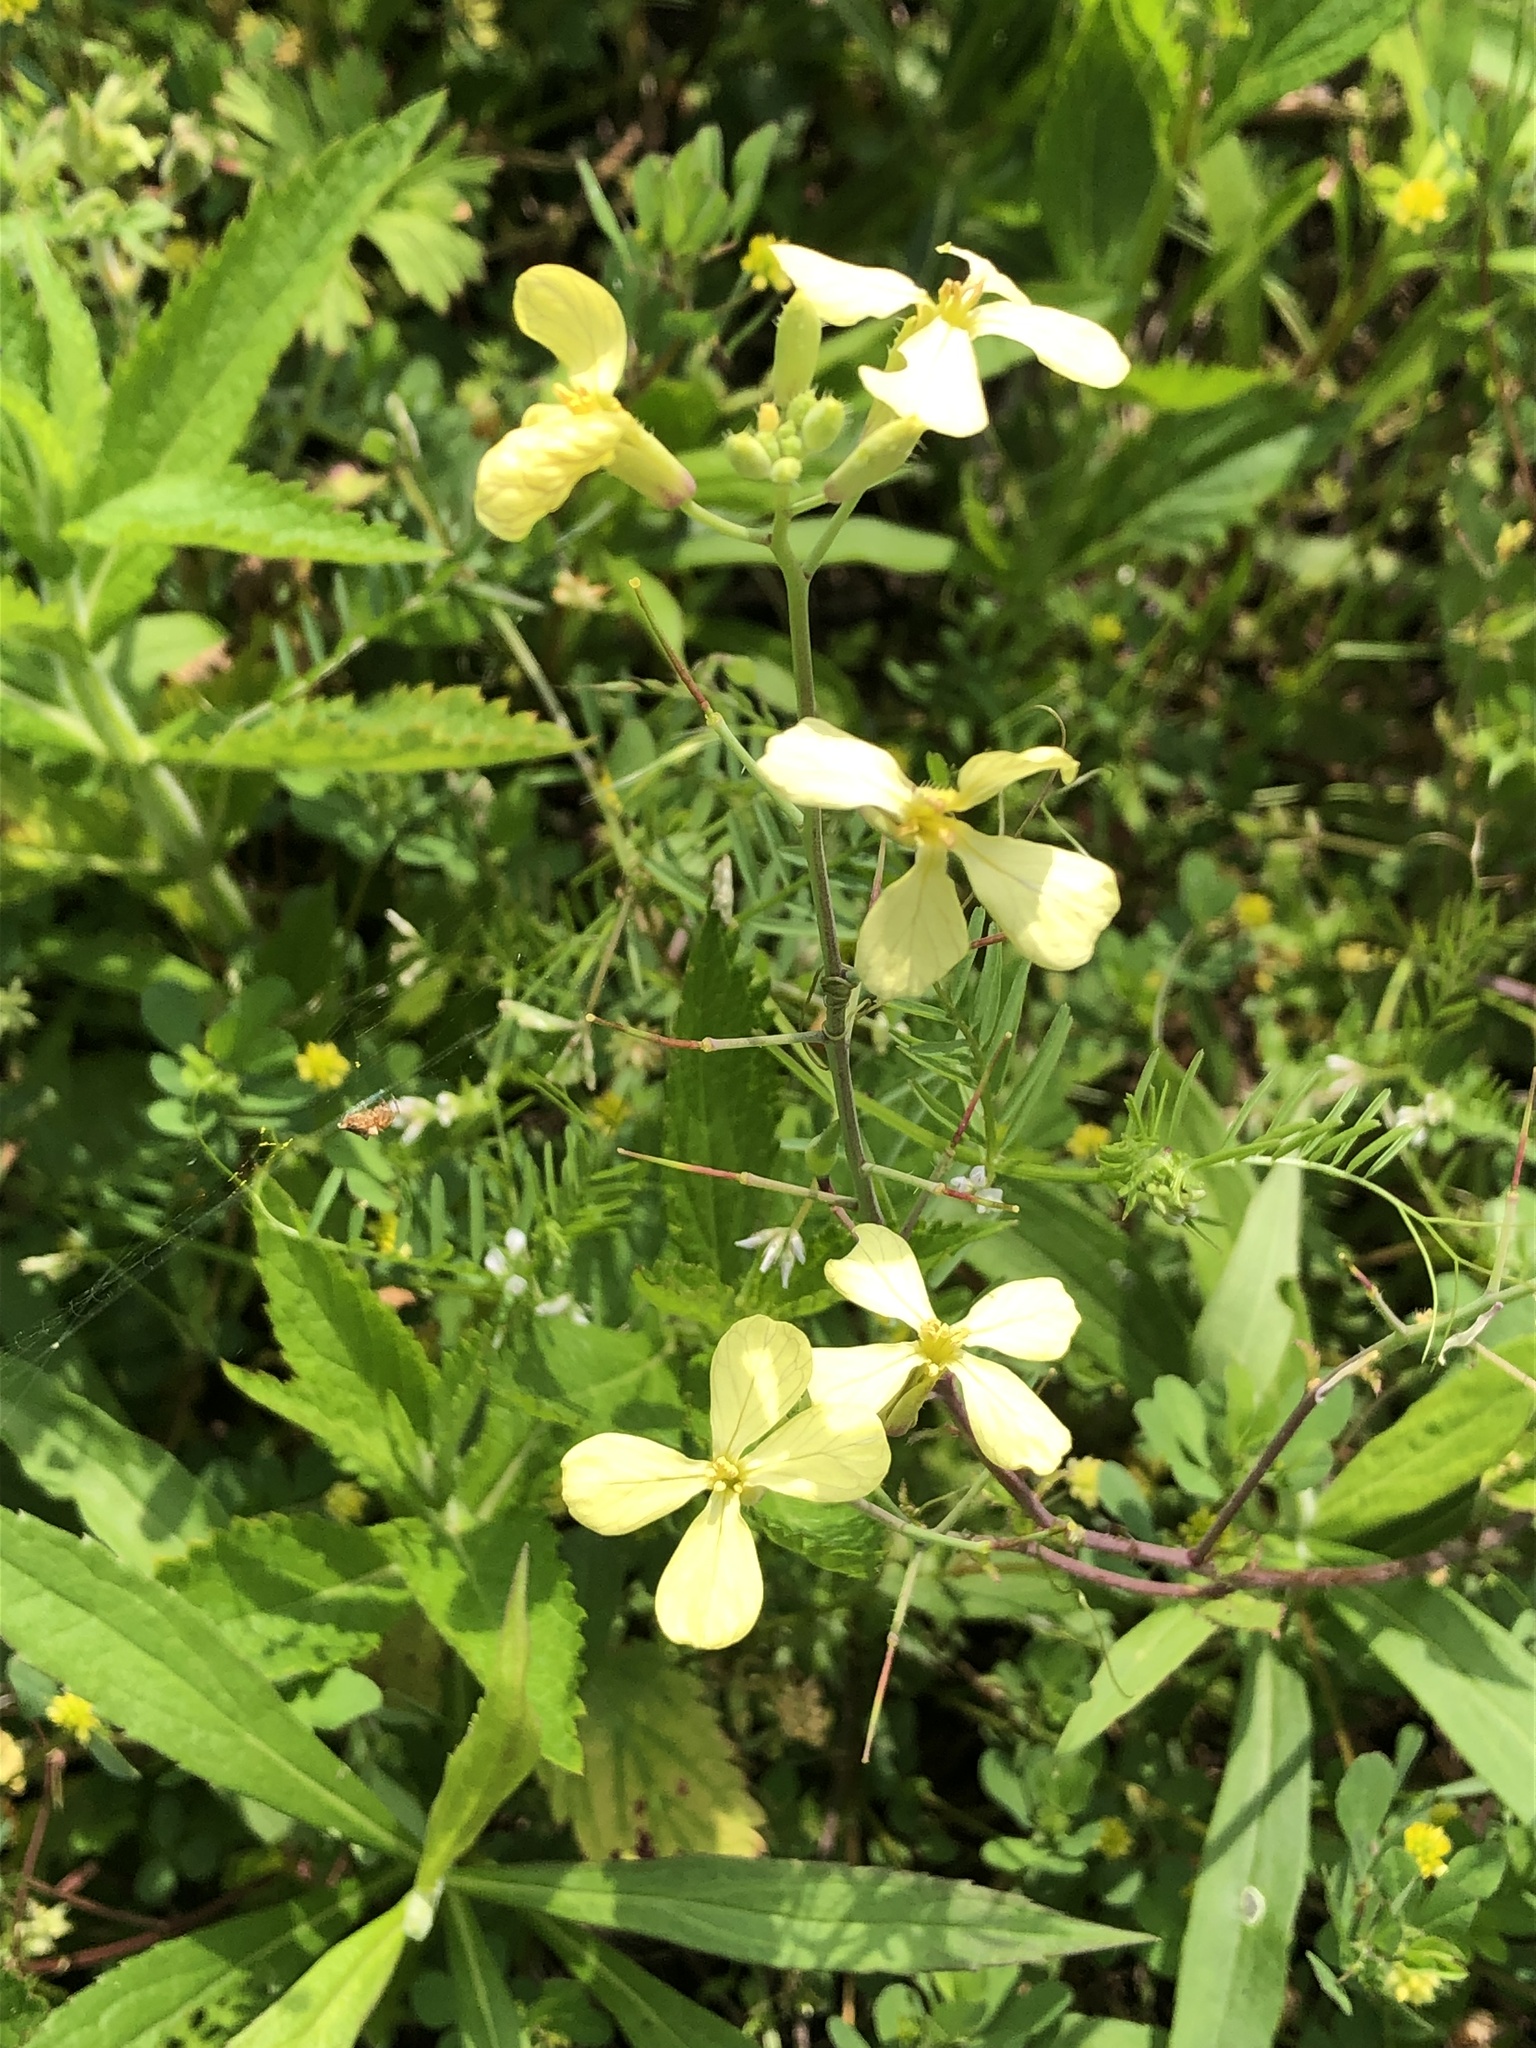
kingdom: Plantae
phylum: Tracheophyta
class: Magnoliopsida
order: Brassicales
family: Brassicaceae
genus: Raphanus
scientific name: Raphanus raphanistrum
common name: Wild radish
